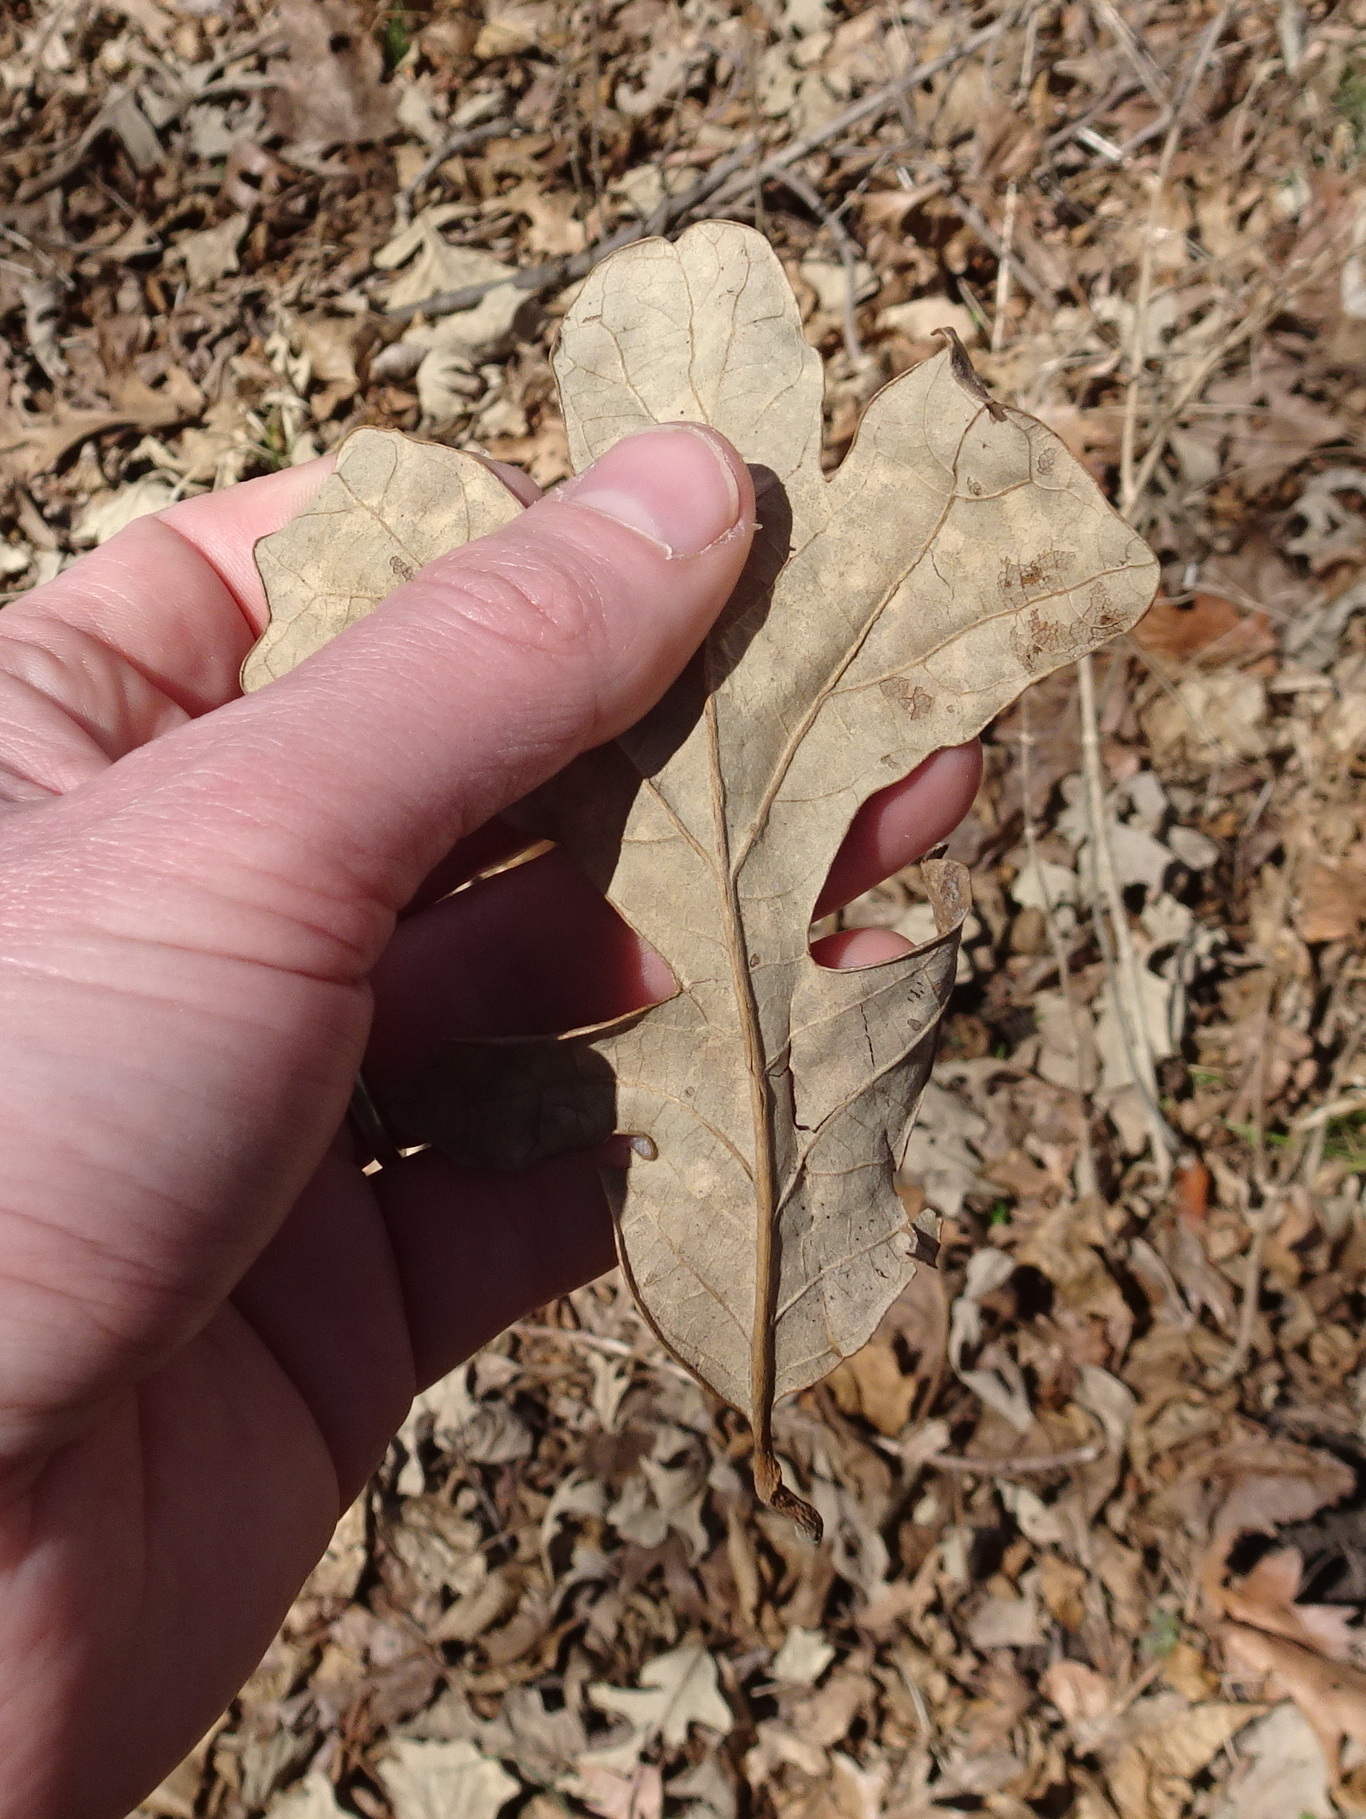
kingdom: Plantae
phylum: Tracheophyta
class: Magnoliopsida
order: Fagales
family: Fagaceae
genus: Quercus
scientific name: Quercus stellata
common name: Post oak
